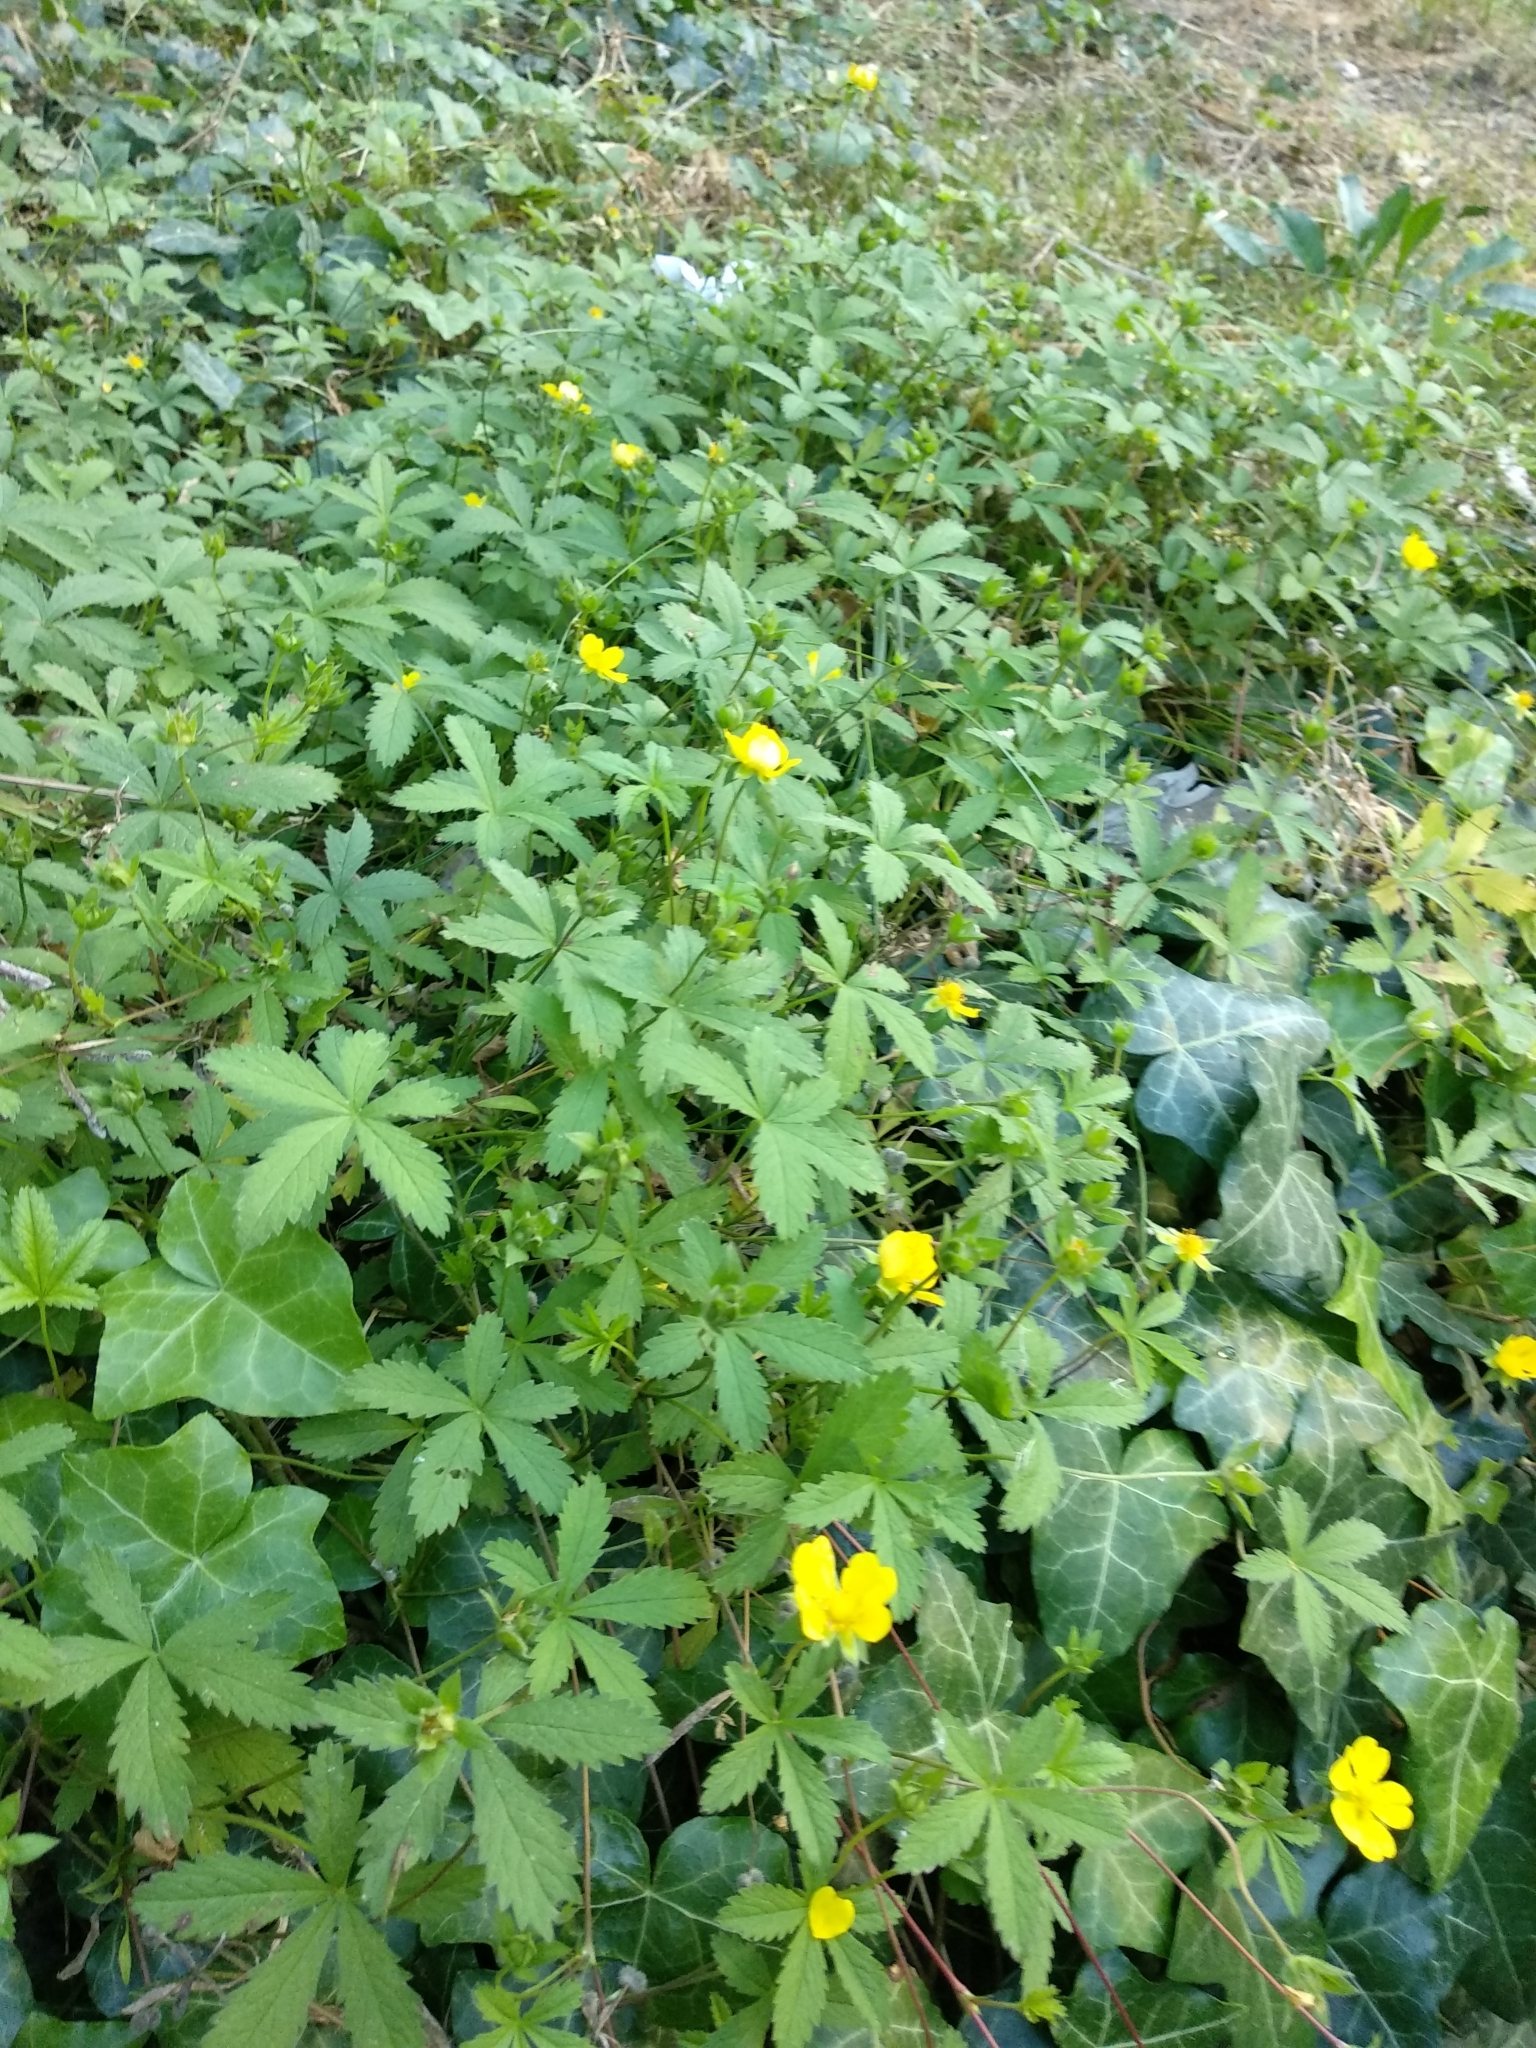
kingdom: Plantae
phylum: Tracheophyta
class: Magnoliopsida
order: Rosales
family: Rosaceae
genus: Potentilla
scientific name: Potentilla reptans
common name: Creeping cinquefoil
